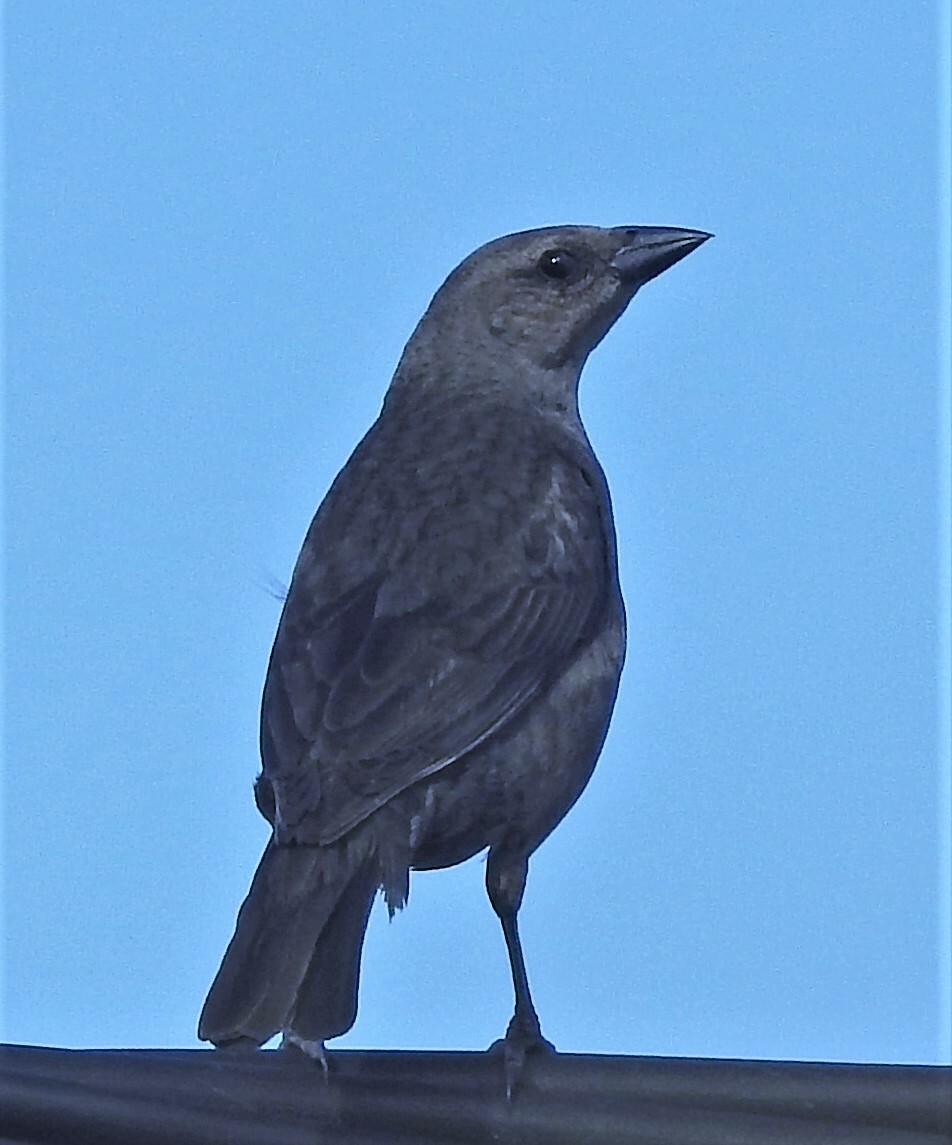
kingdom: Animalia
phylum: Chordata
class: Aves
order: Passeriformes
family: Icteridae
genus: Molothrus
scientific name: Molothrus bonariensis
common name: Shiny cowbird
